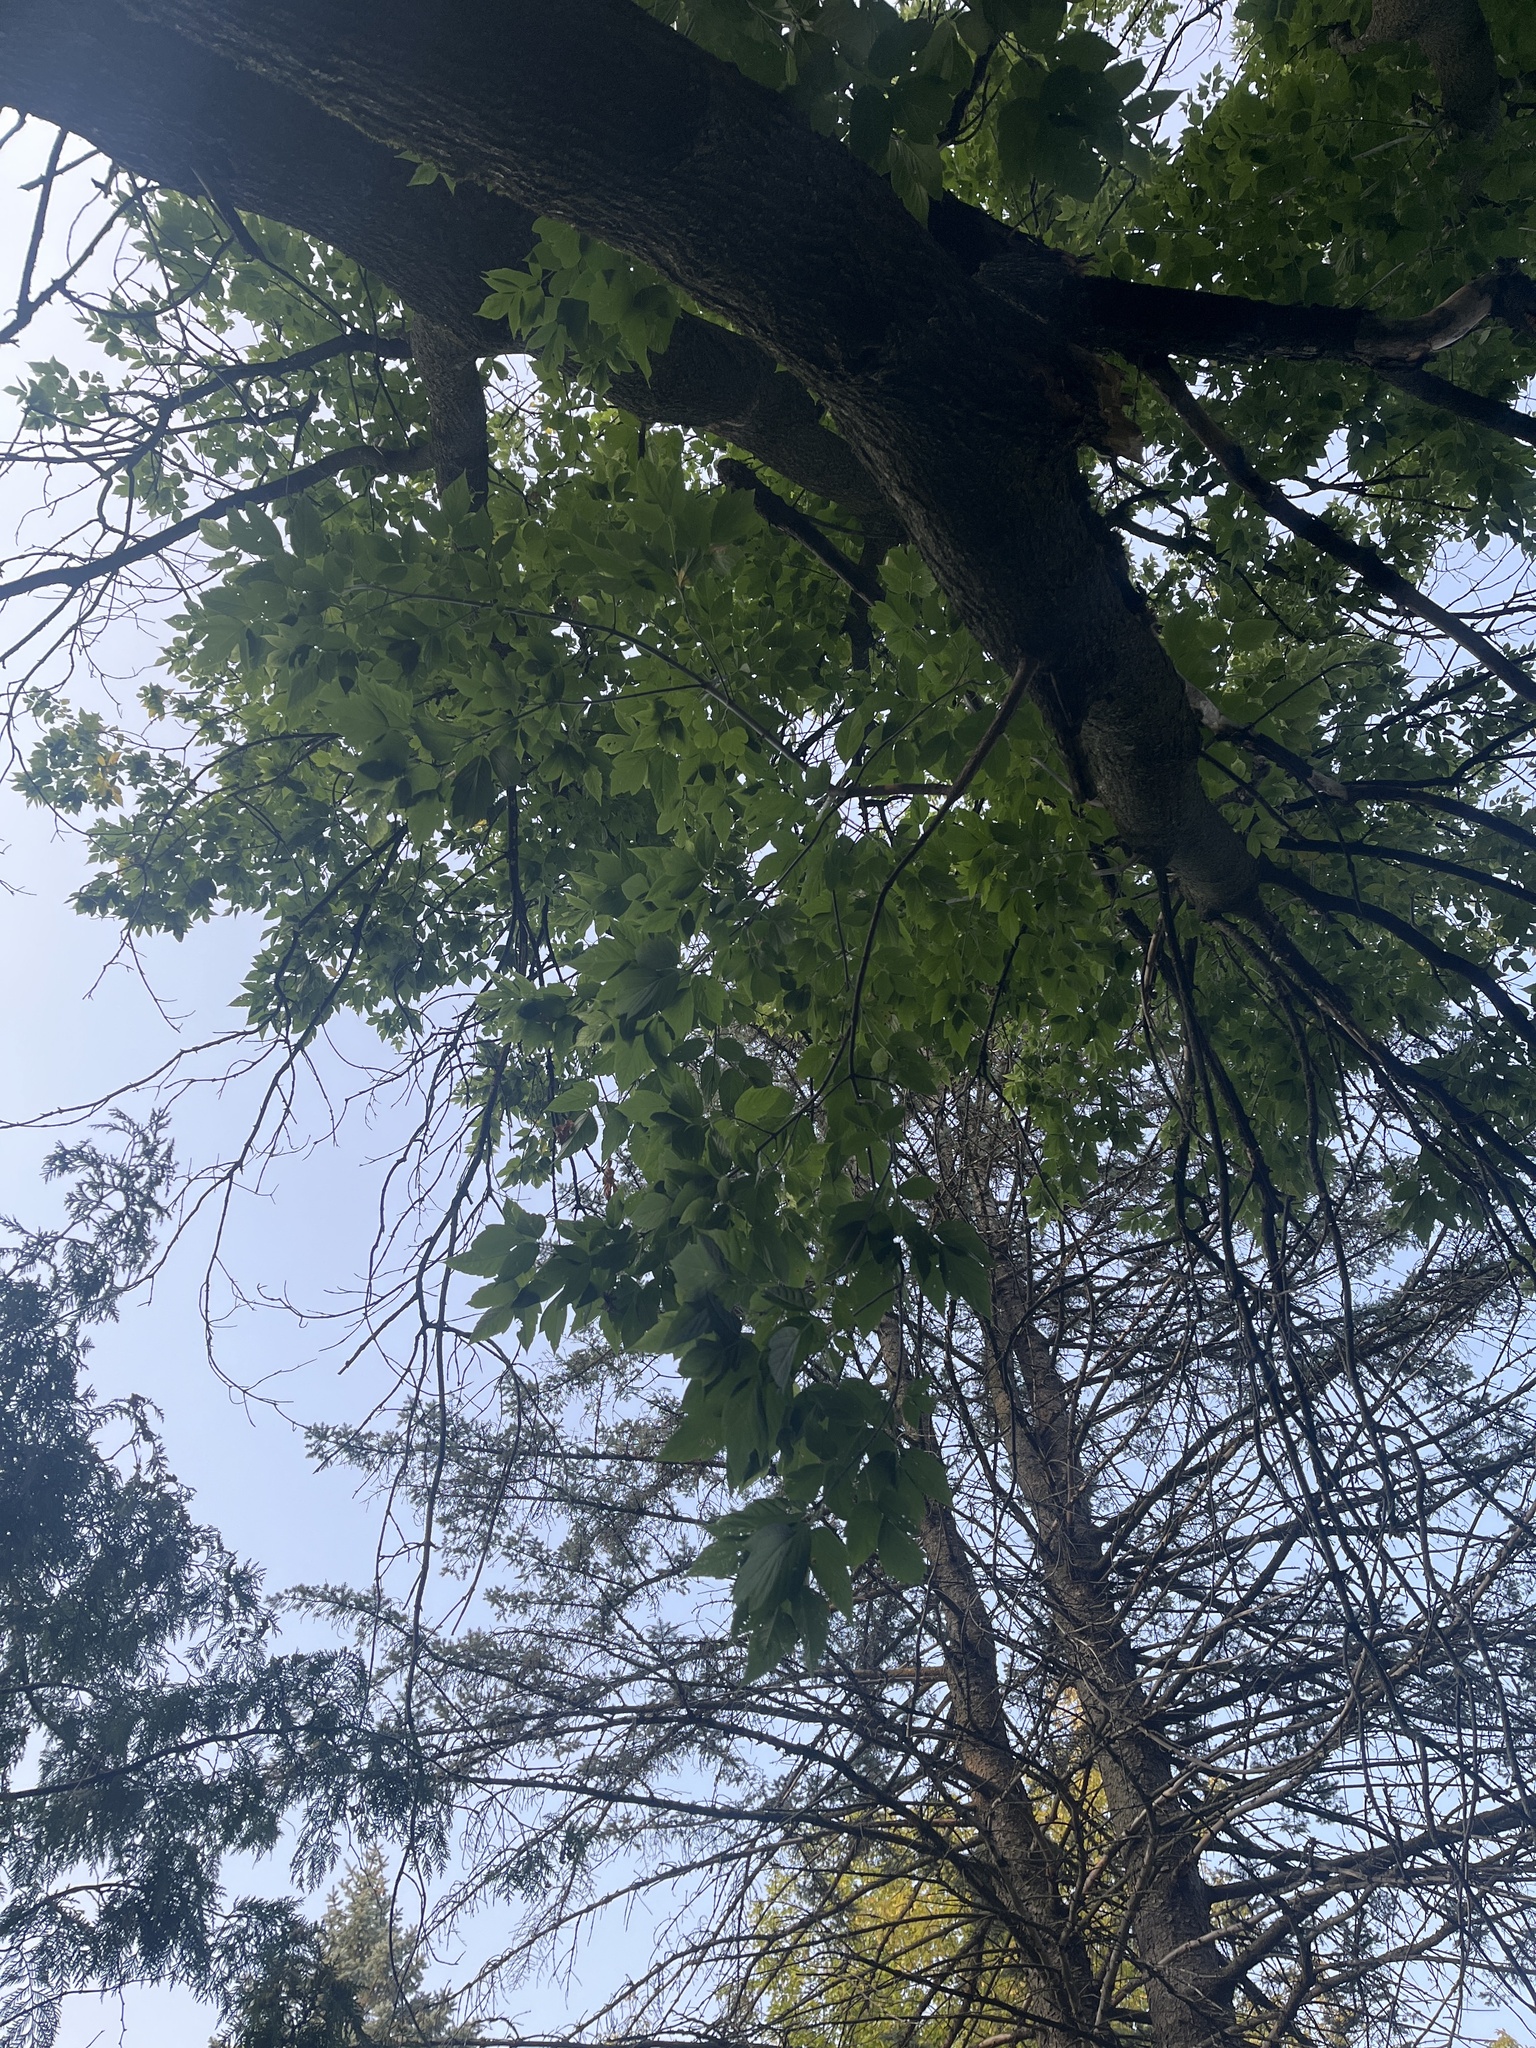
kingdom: Plantae
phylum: Tracheophyta
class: Magnoliopsida
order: Sapindales
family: Sapindaceae
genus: Acer
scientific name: Acer negundo
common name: Ashleaf maple
